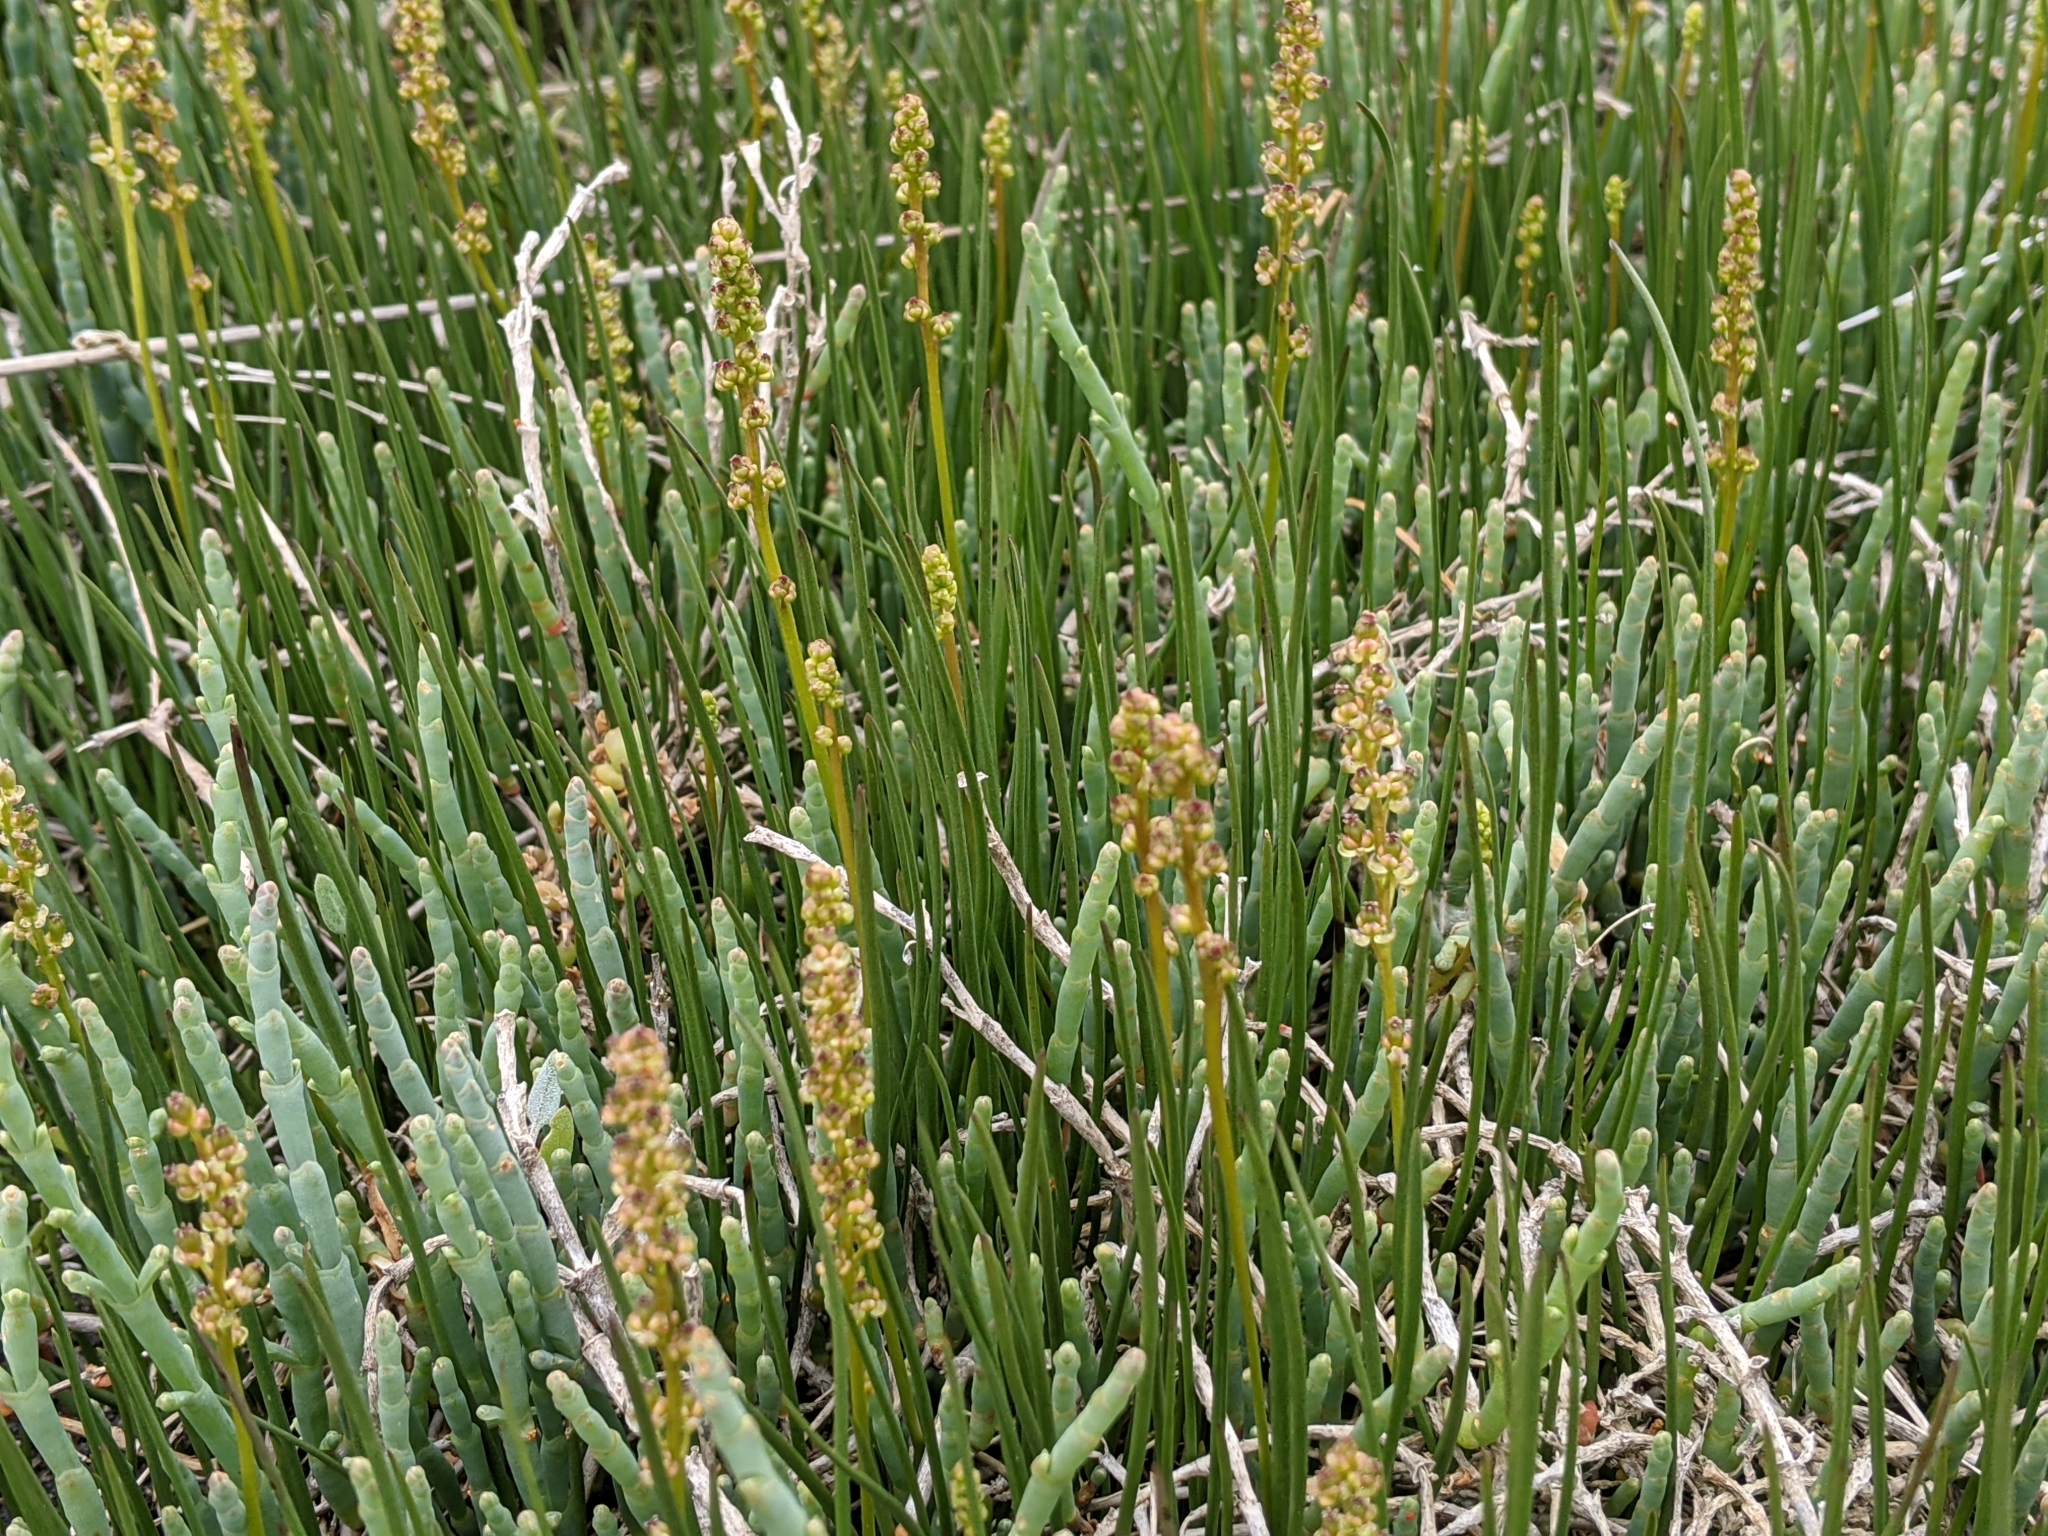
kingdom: Plantae
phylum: Tracheophyta
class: Liliopsida
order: Alismatales
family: Juncaginaceae
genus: Triglochin
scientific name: Triglochin maritima
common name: Sea arrowgrass
